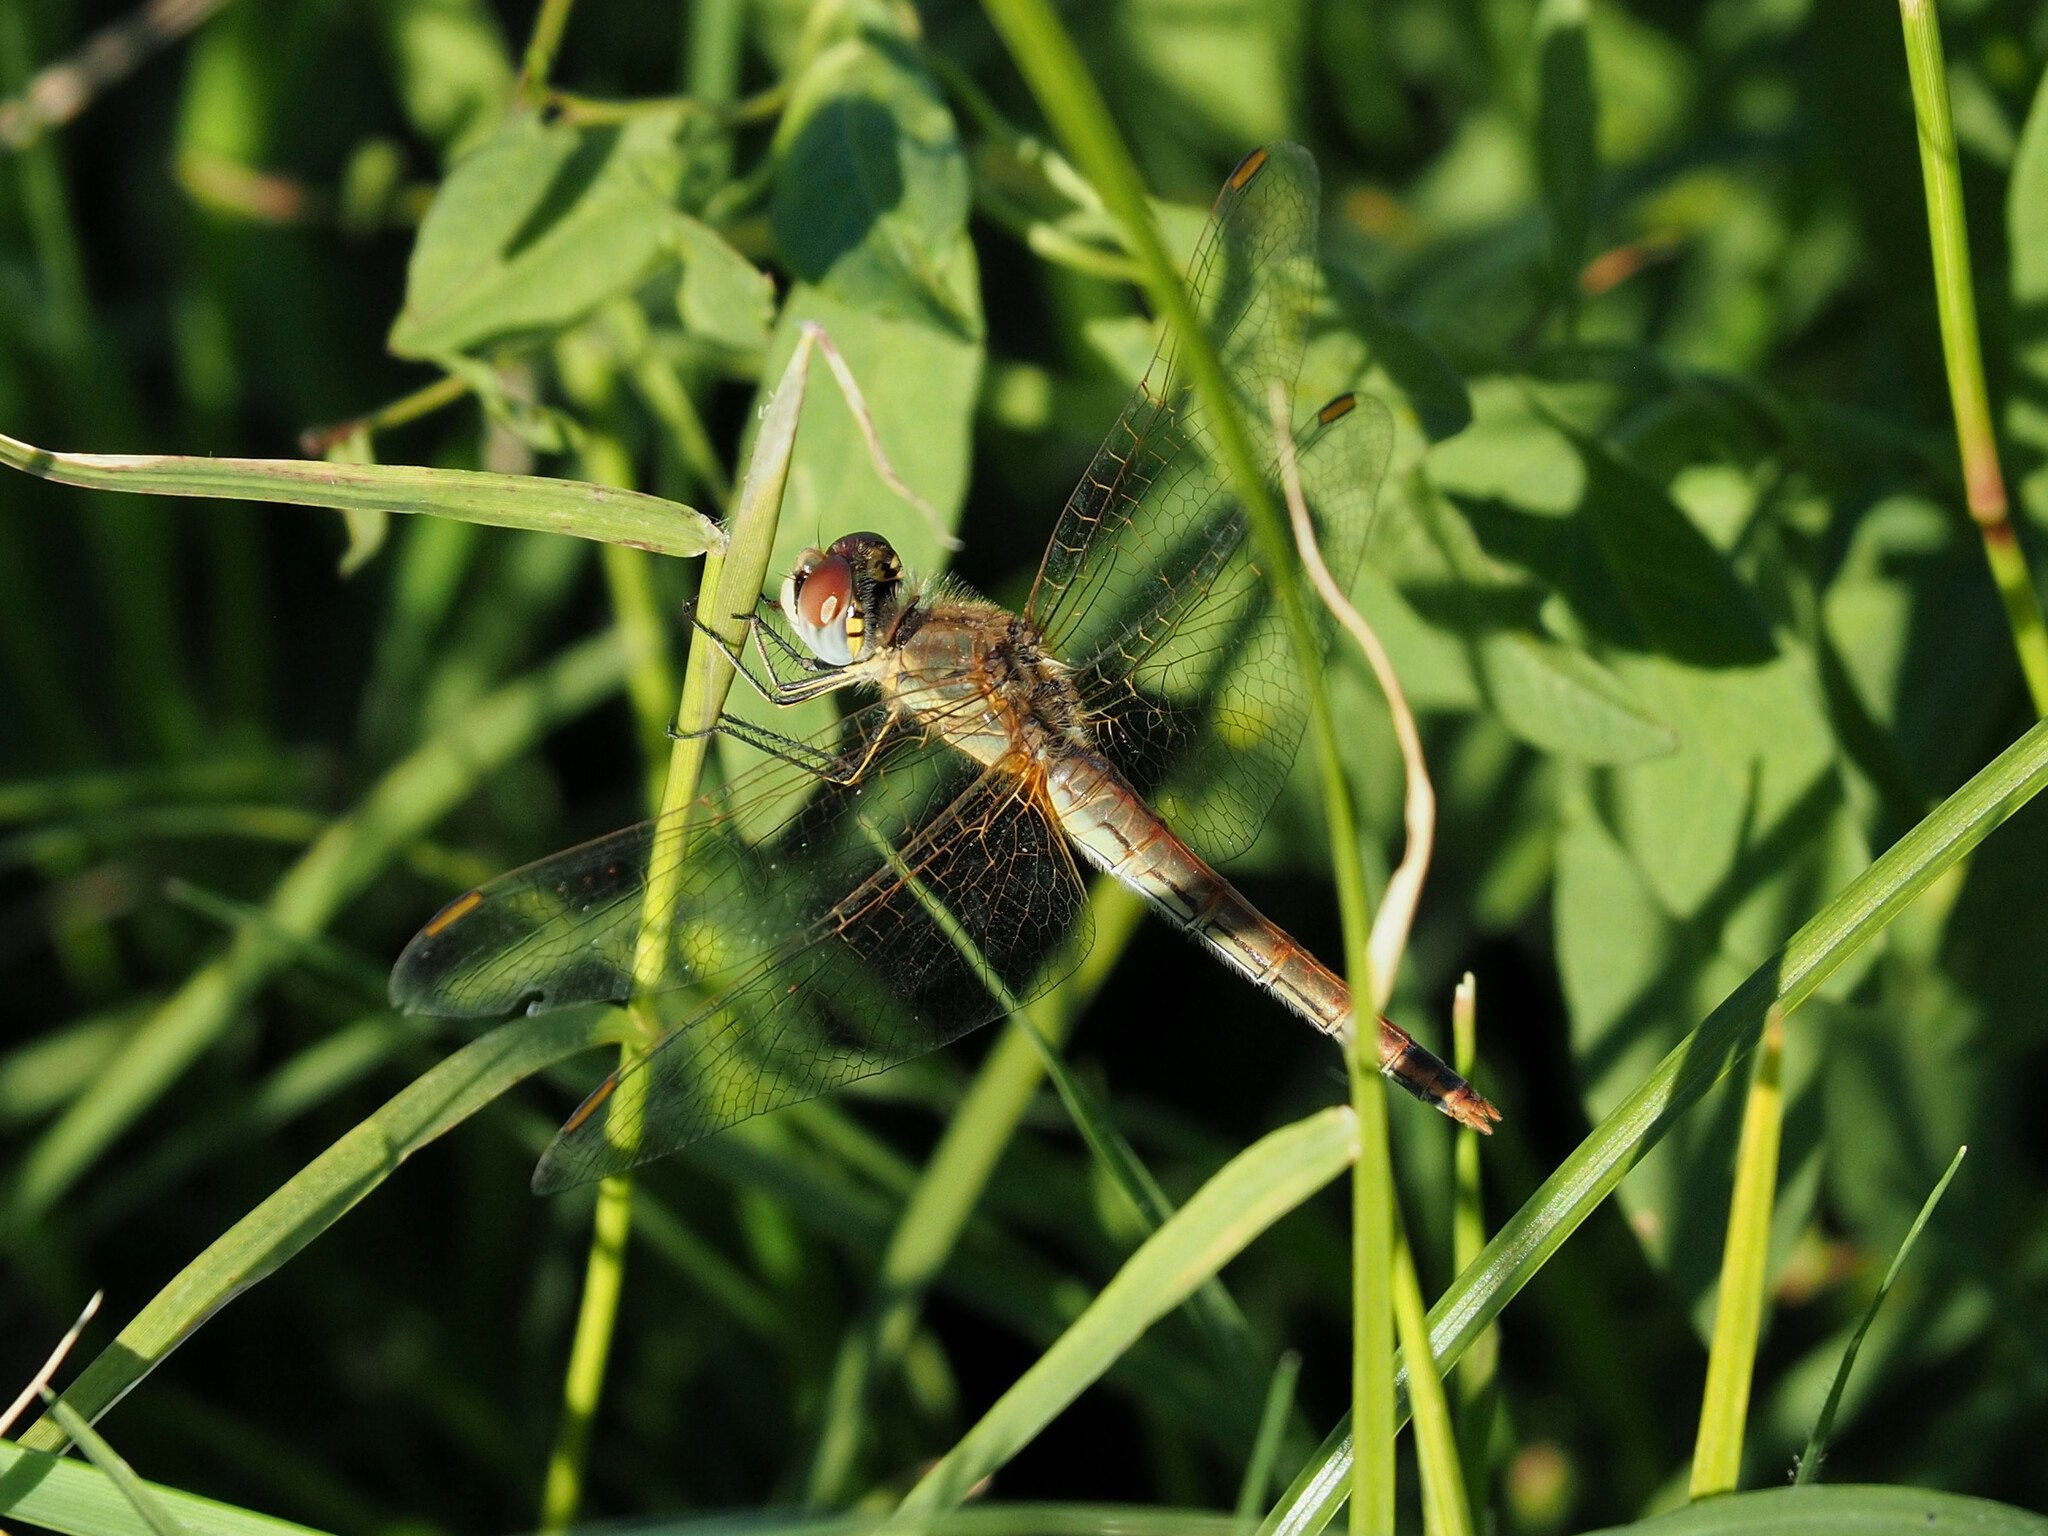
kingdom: Animalia
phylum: Arthropoda
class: Insecta
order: Odonata
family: Libellulidae
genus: Sympetrum
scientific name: Sympetrum fonscolombii
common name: Red-veined darter
